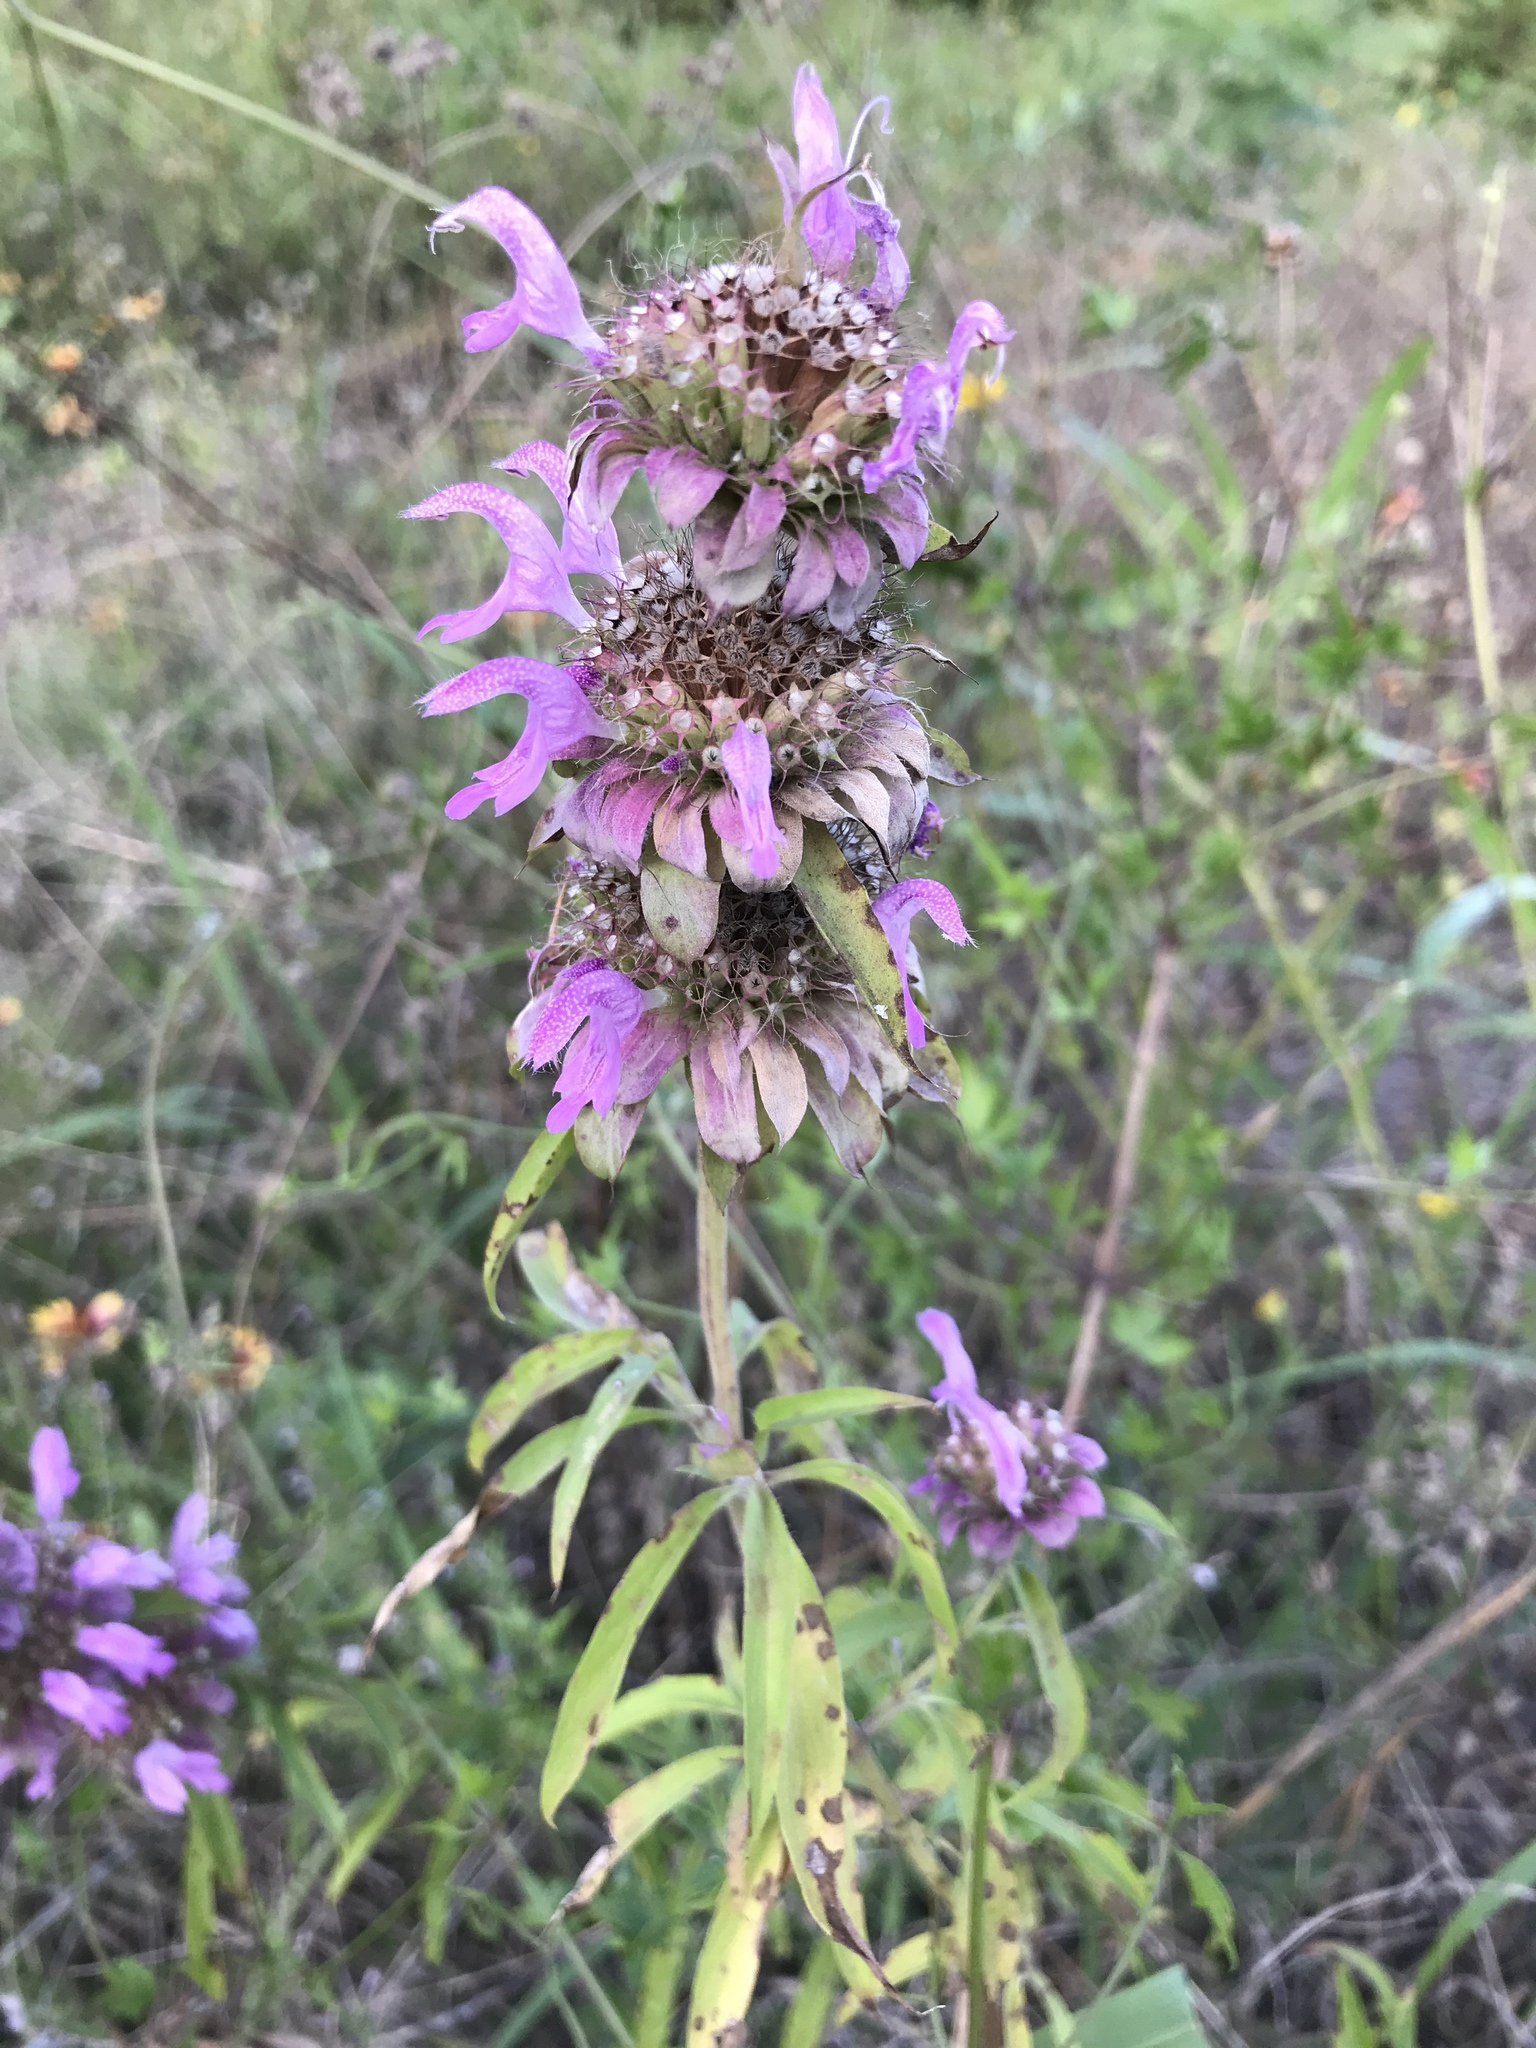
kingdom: Plantae
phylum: Tracheophyta
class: Magnoliopsida
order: Lamiales
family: Lamiaceae
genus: Monarda
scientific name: Monarda citriodora
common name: Lemon beebalm
